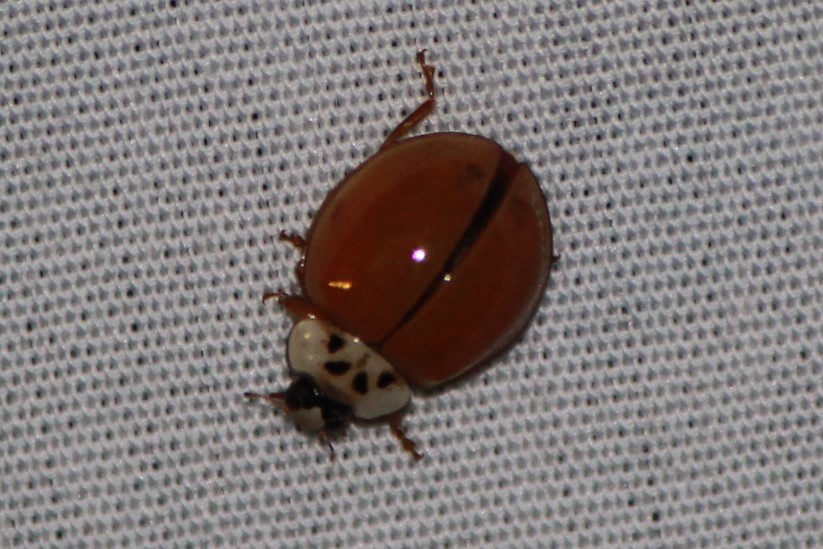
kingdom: Animalia
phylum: Arthropoda
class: Insecta
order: Coleoptera
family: Coccinellidae
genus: Harmonia
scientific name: Harmonia axyridis
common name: Harlequin ladybird
